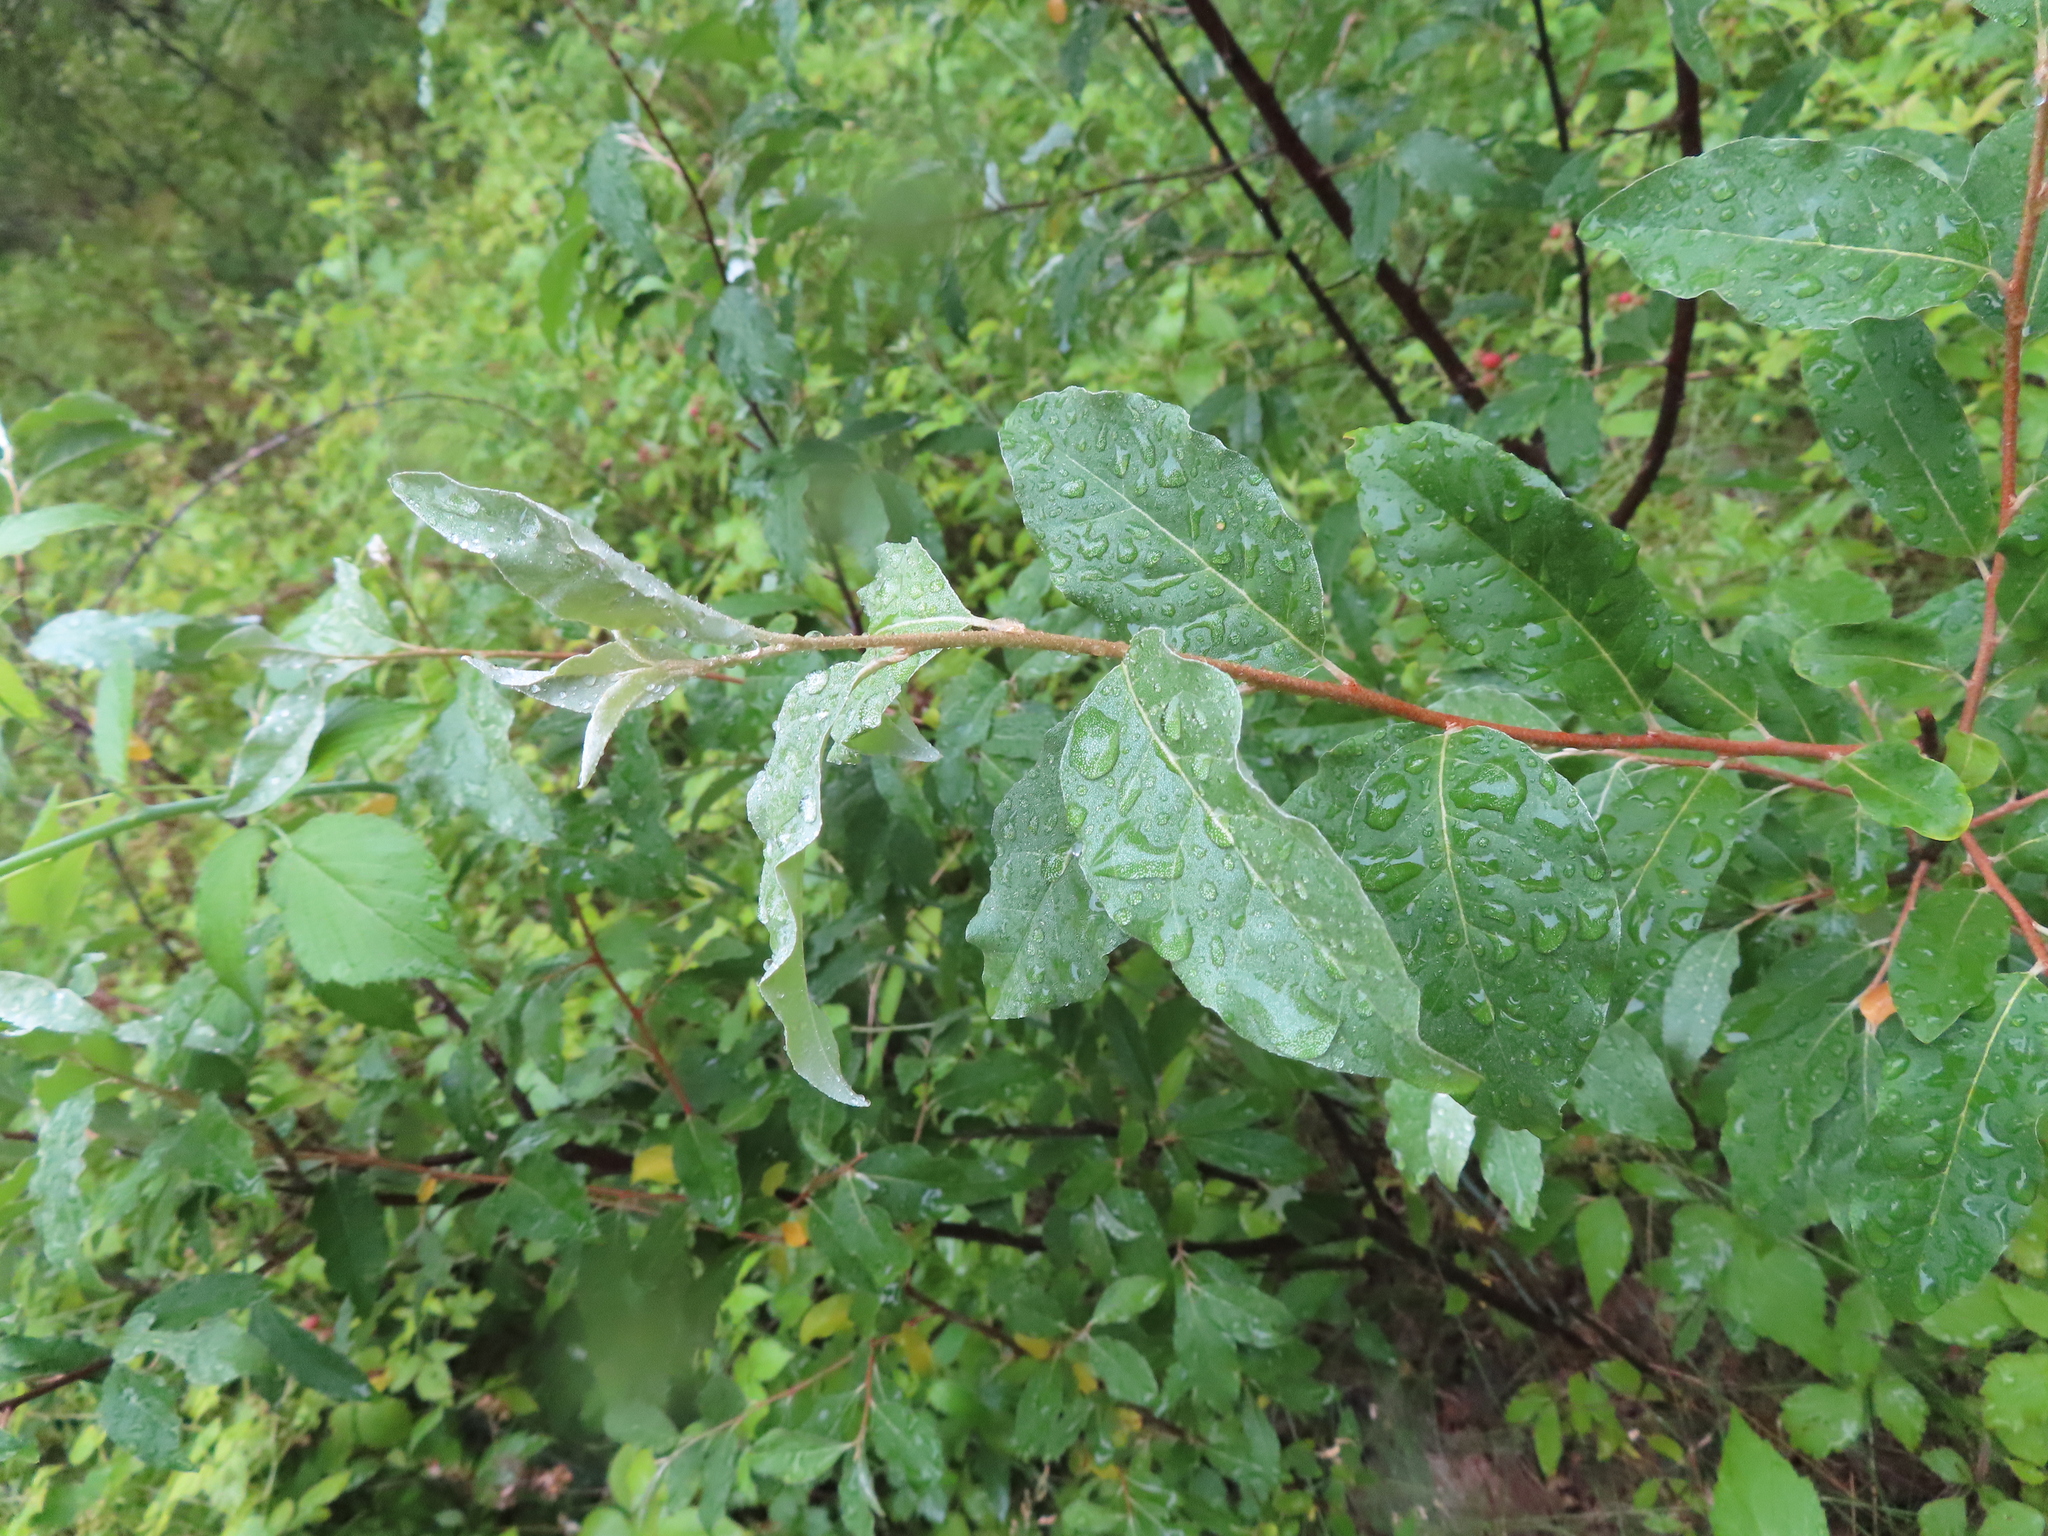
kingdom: Plantae
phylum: Tracheophyta
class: Magnoliopsida
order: Rosales
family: Elaeagnaceae
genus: Elaeagnus
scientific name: Elaeagnus umbellata
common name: Autumn olive
